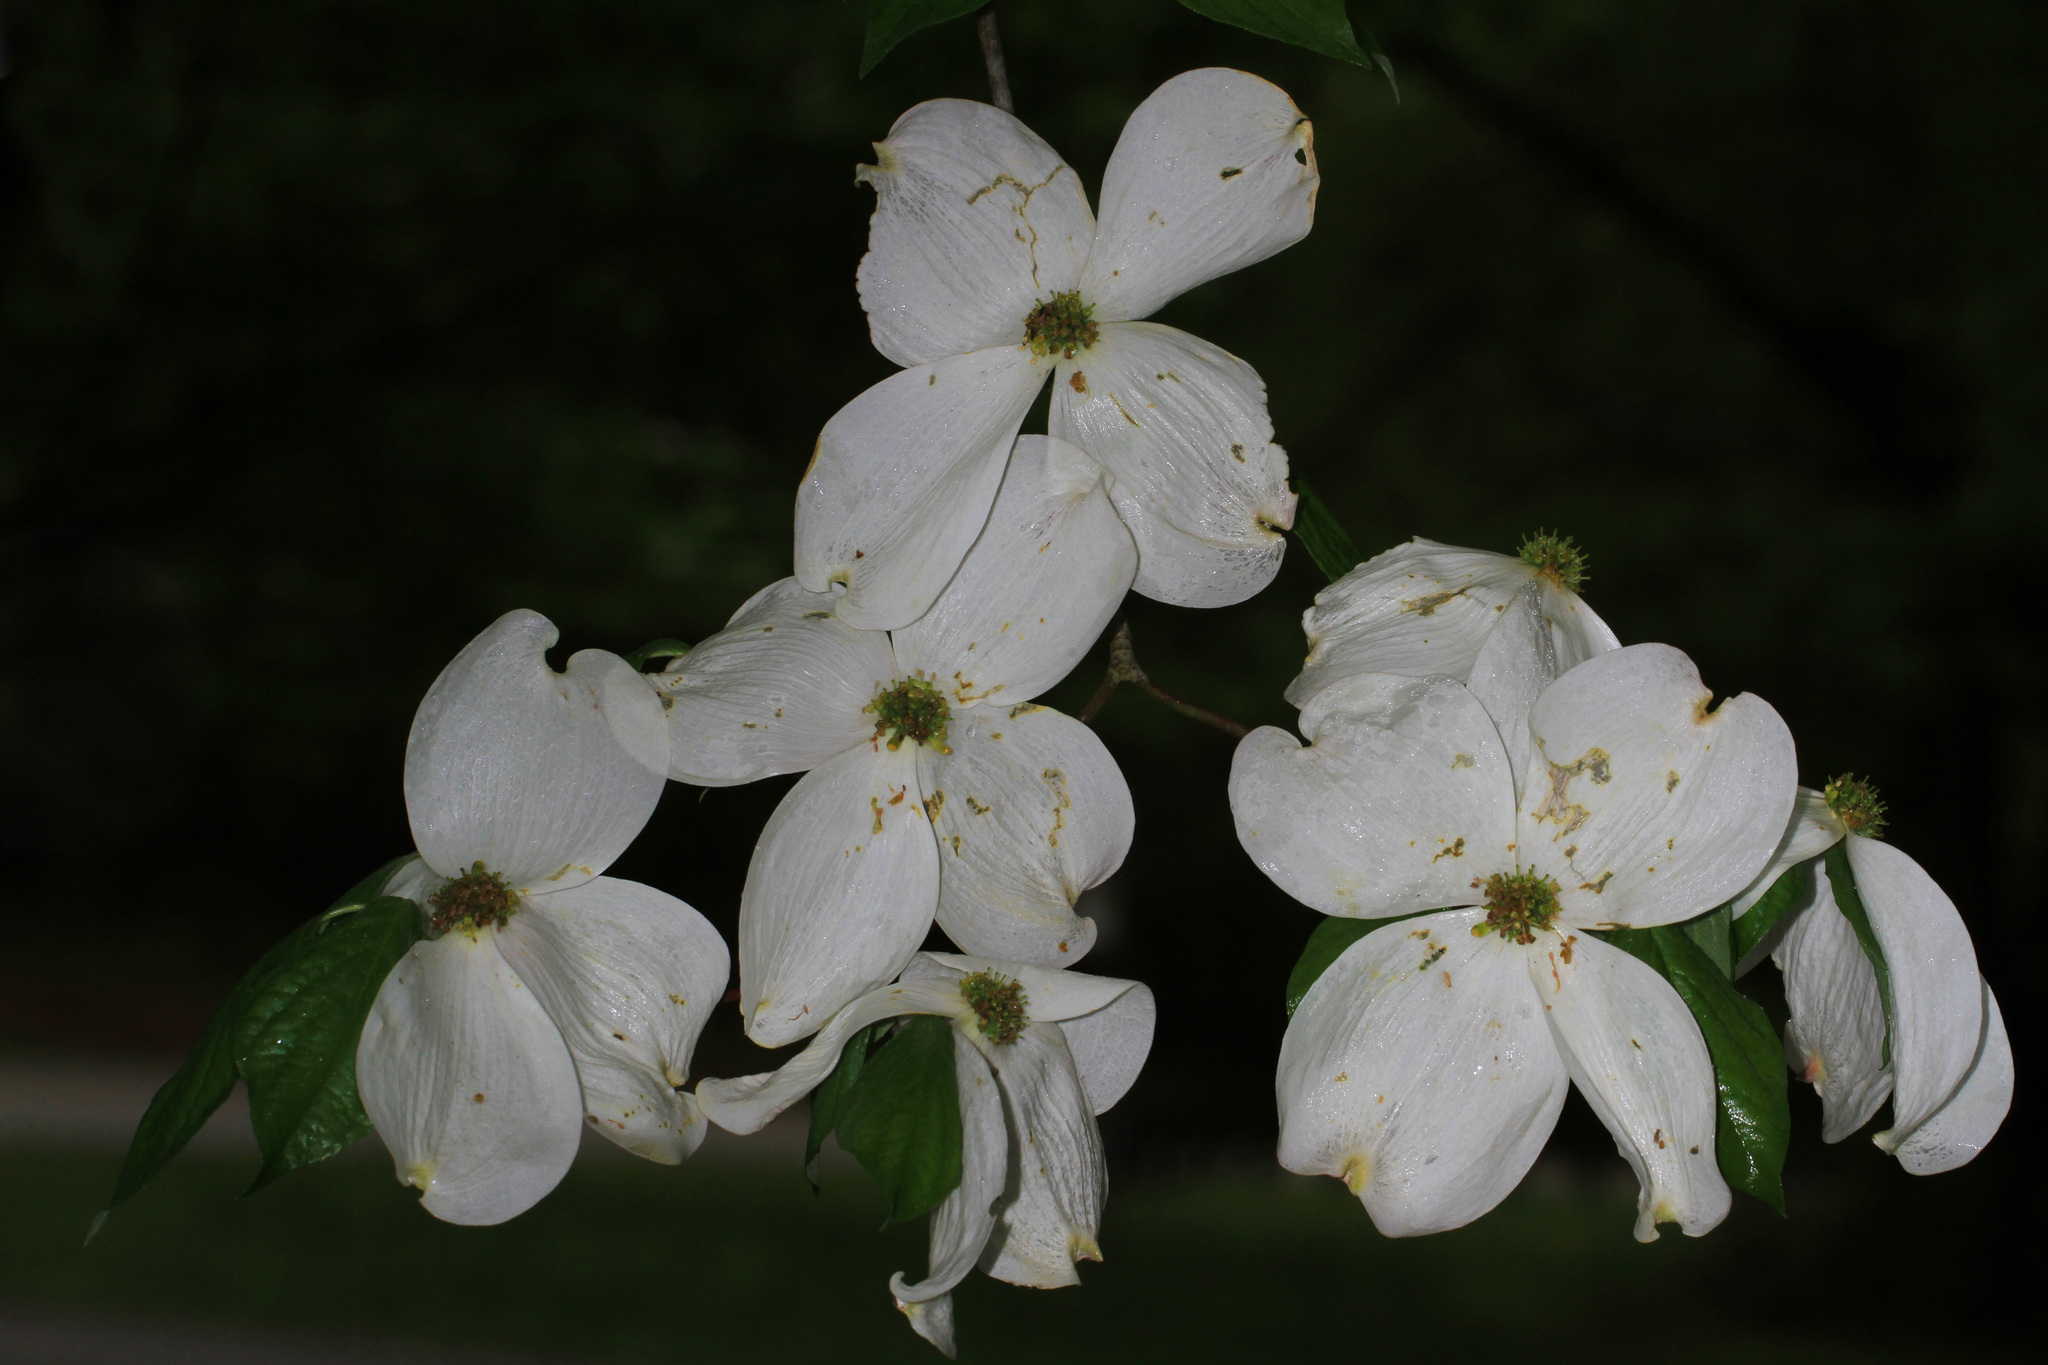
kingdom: Plantae
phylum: Tracheophyta
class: Magnoliopsida
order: Cornales
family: Cornaceae
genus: Cornus
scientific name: Cornus florida
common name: Flowering dogwood
